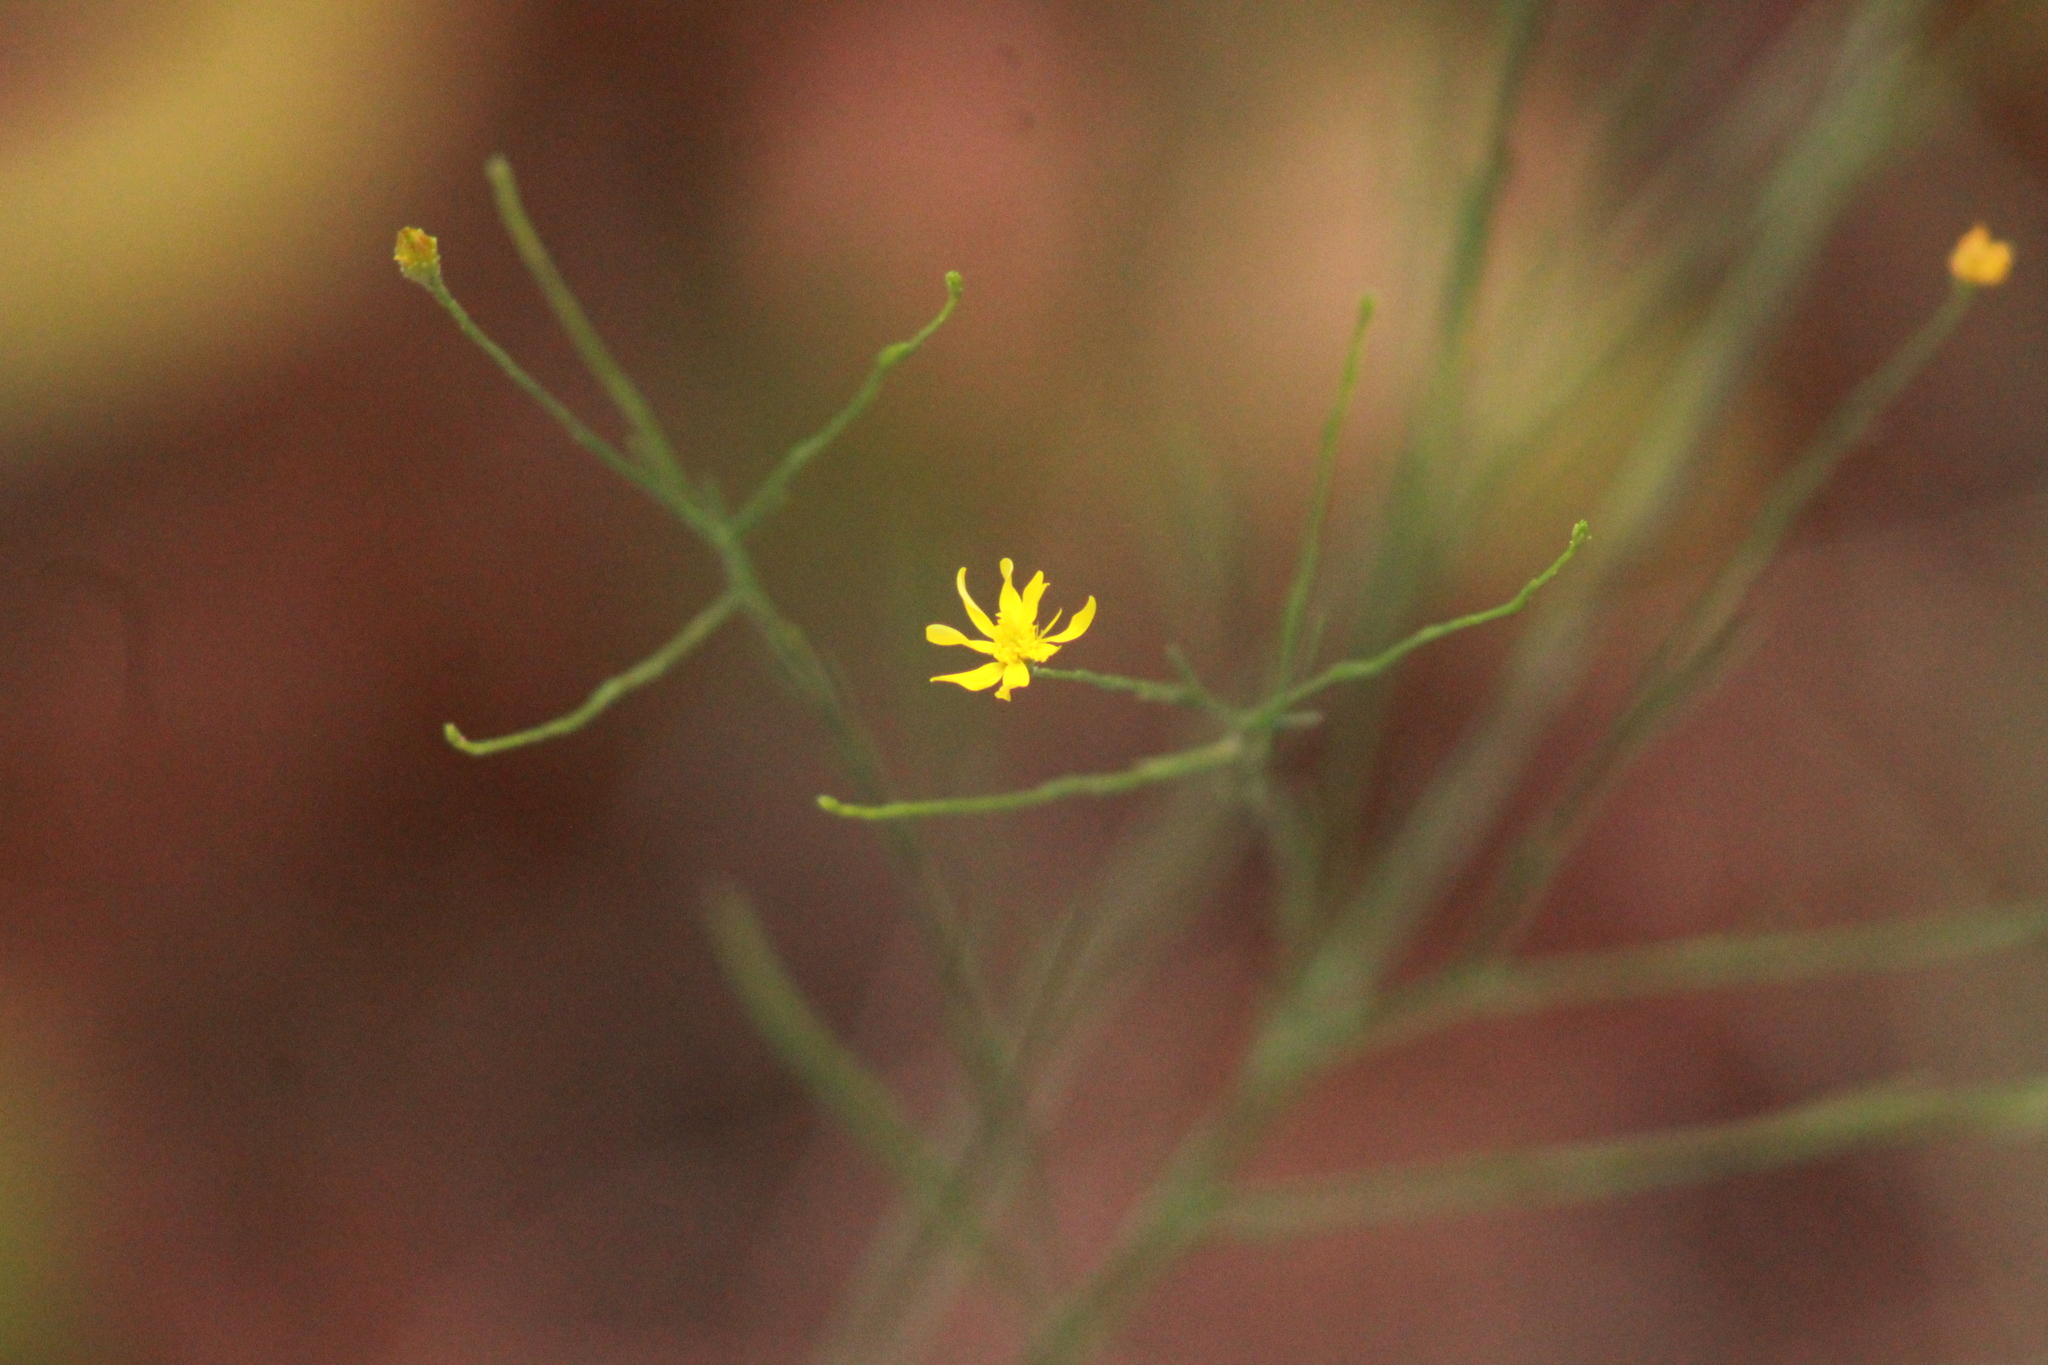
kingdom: Plantae
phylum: Tracheophyta
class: Magnoliopsida
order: Asterales
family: Asteraceae
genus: Gutierrezia
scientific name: Gutierrezia texana
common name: Texas snakeweed
